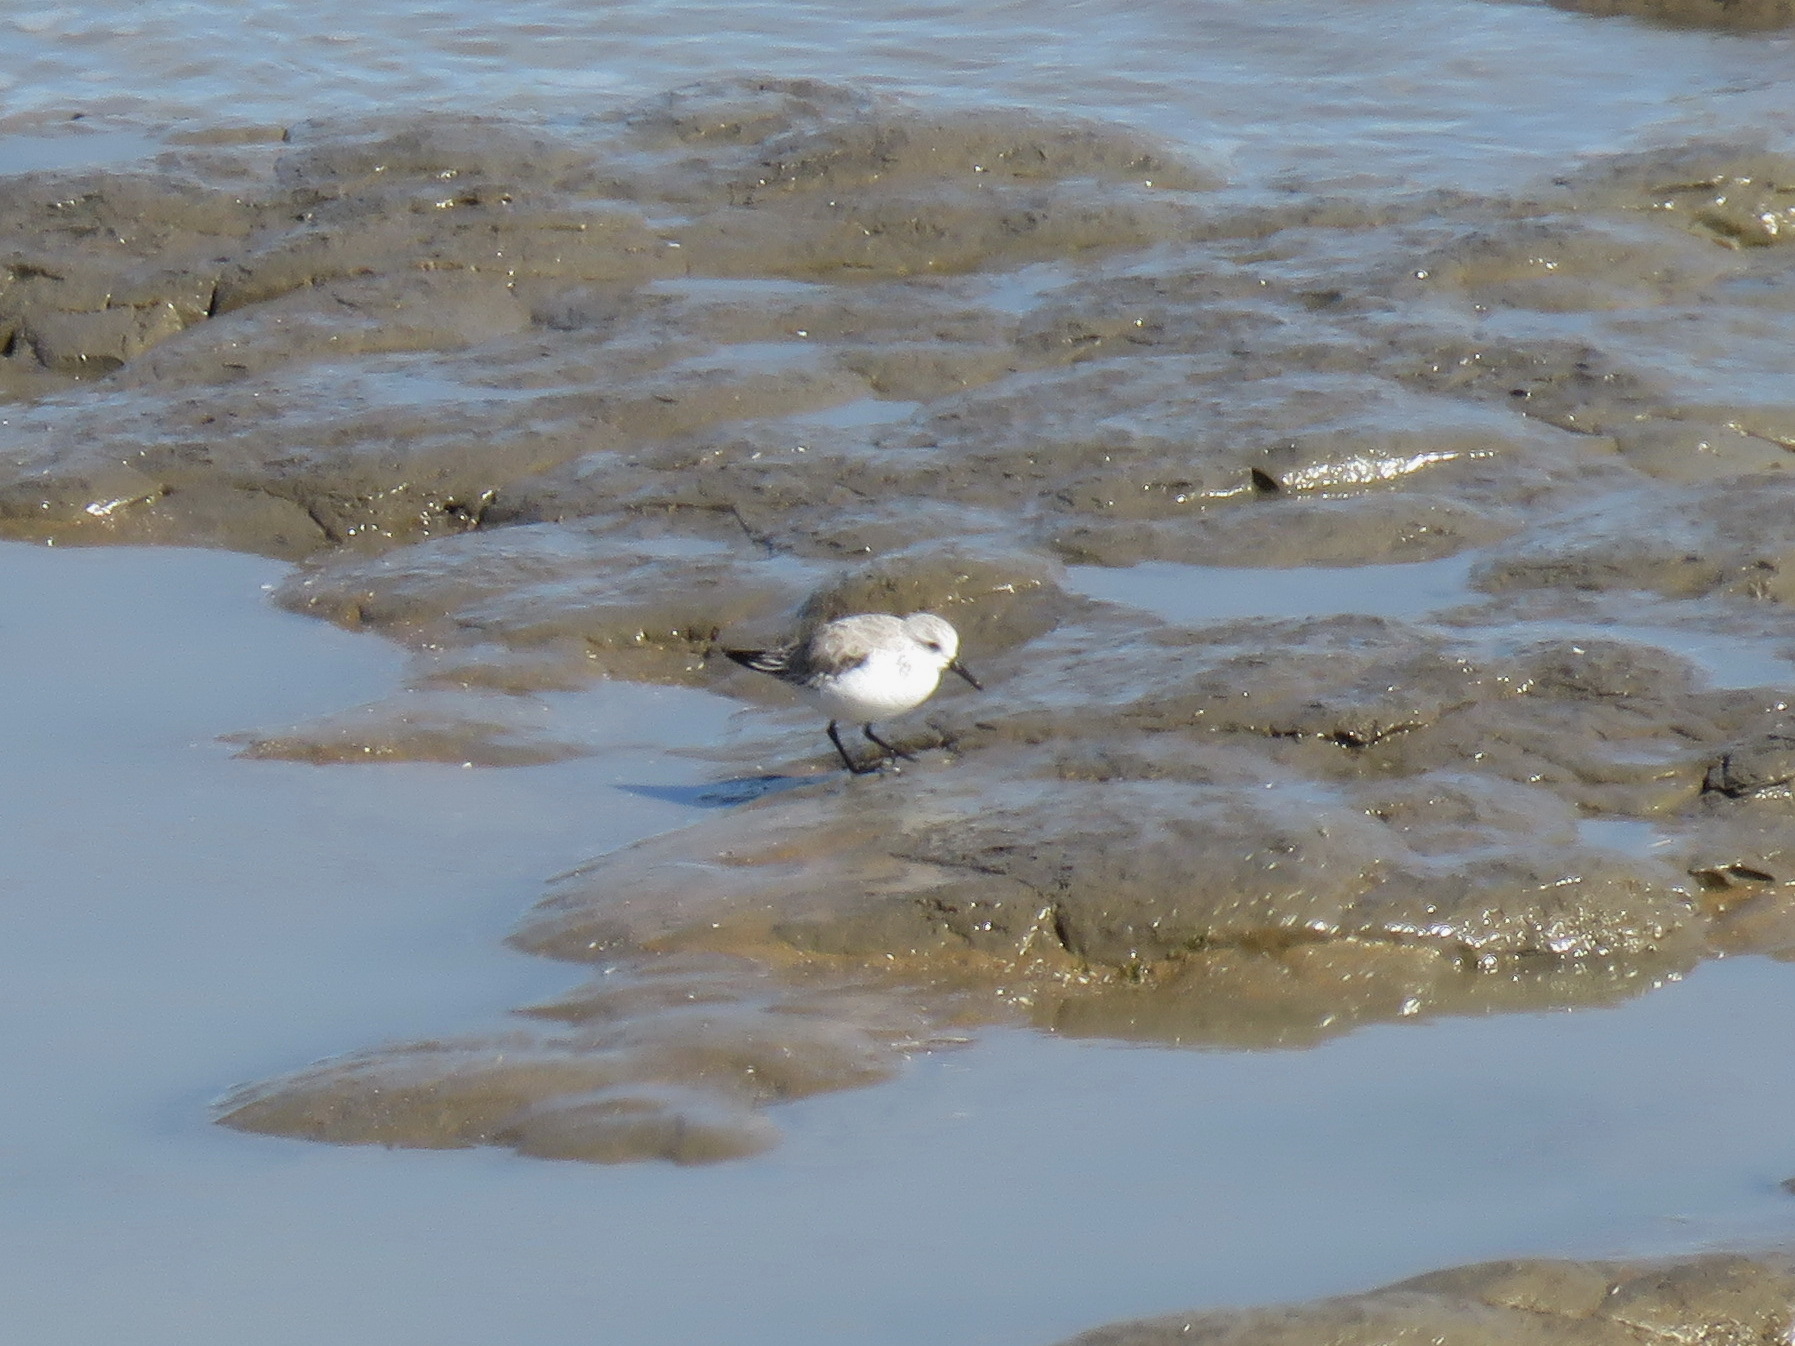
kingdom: Animalia
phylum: Chordata
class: Aves
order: Charadriiformes
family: Scolopacidae
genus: Calidris
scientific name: Calidris alba
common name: Sanderling
